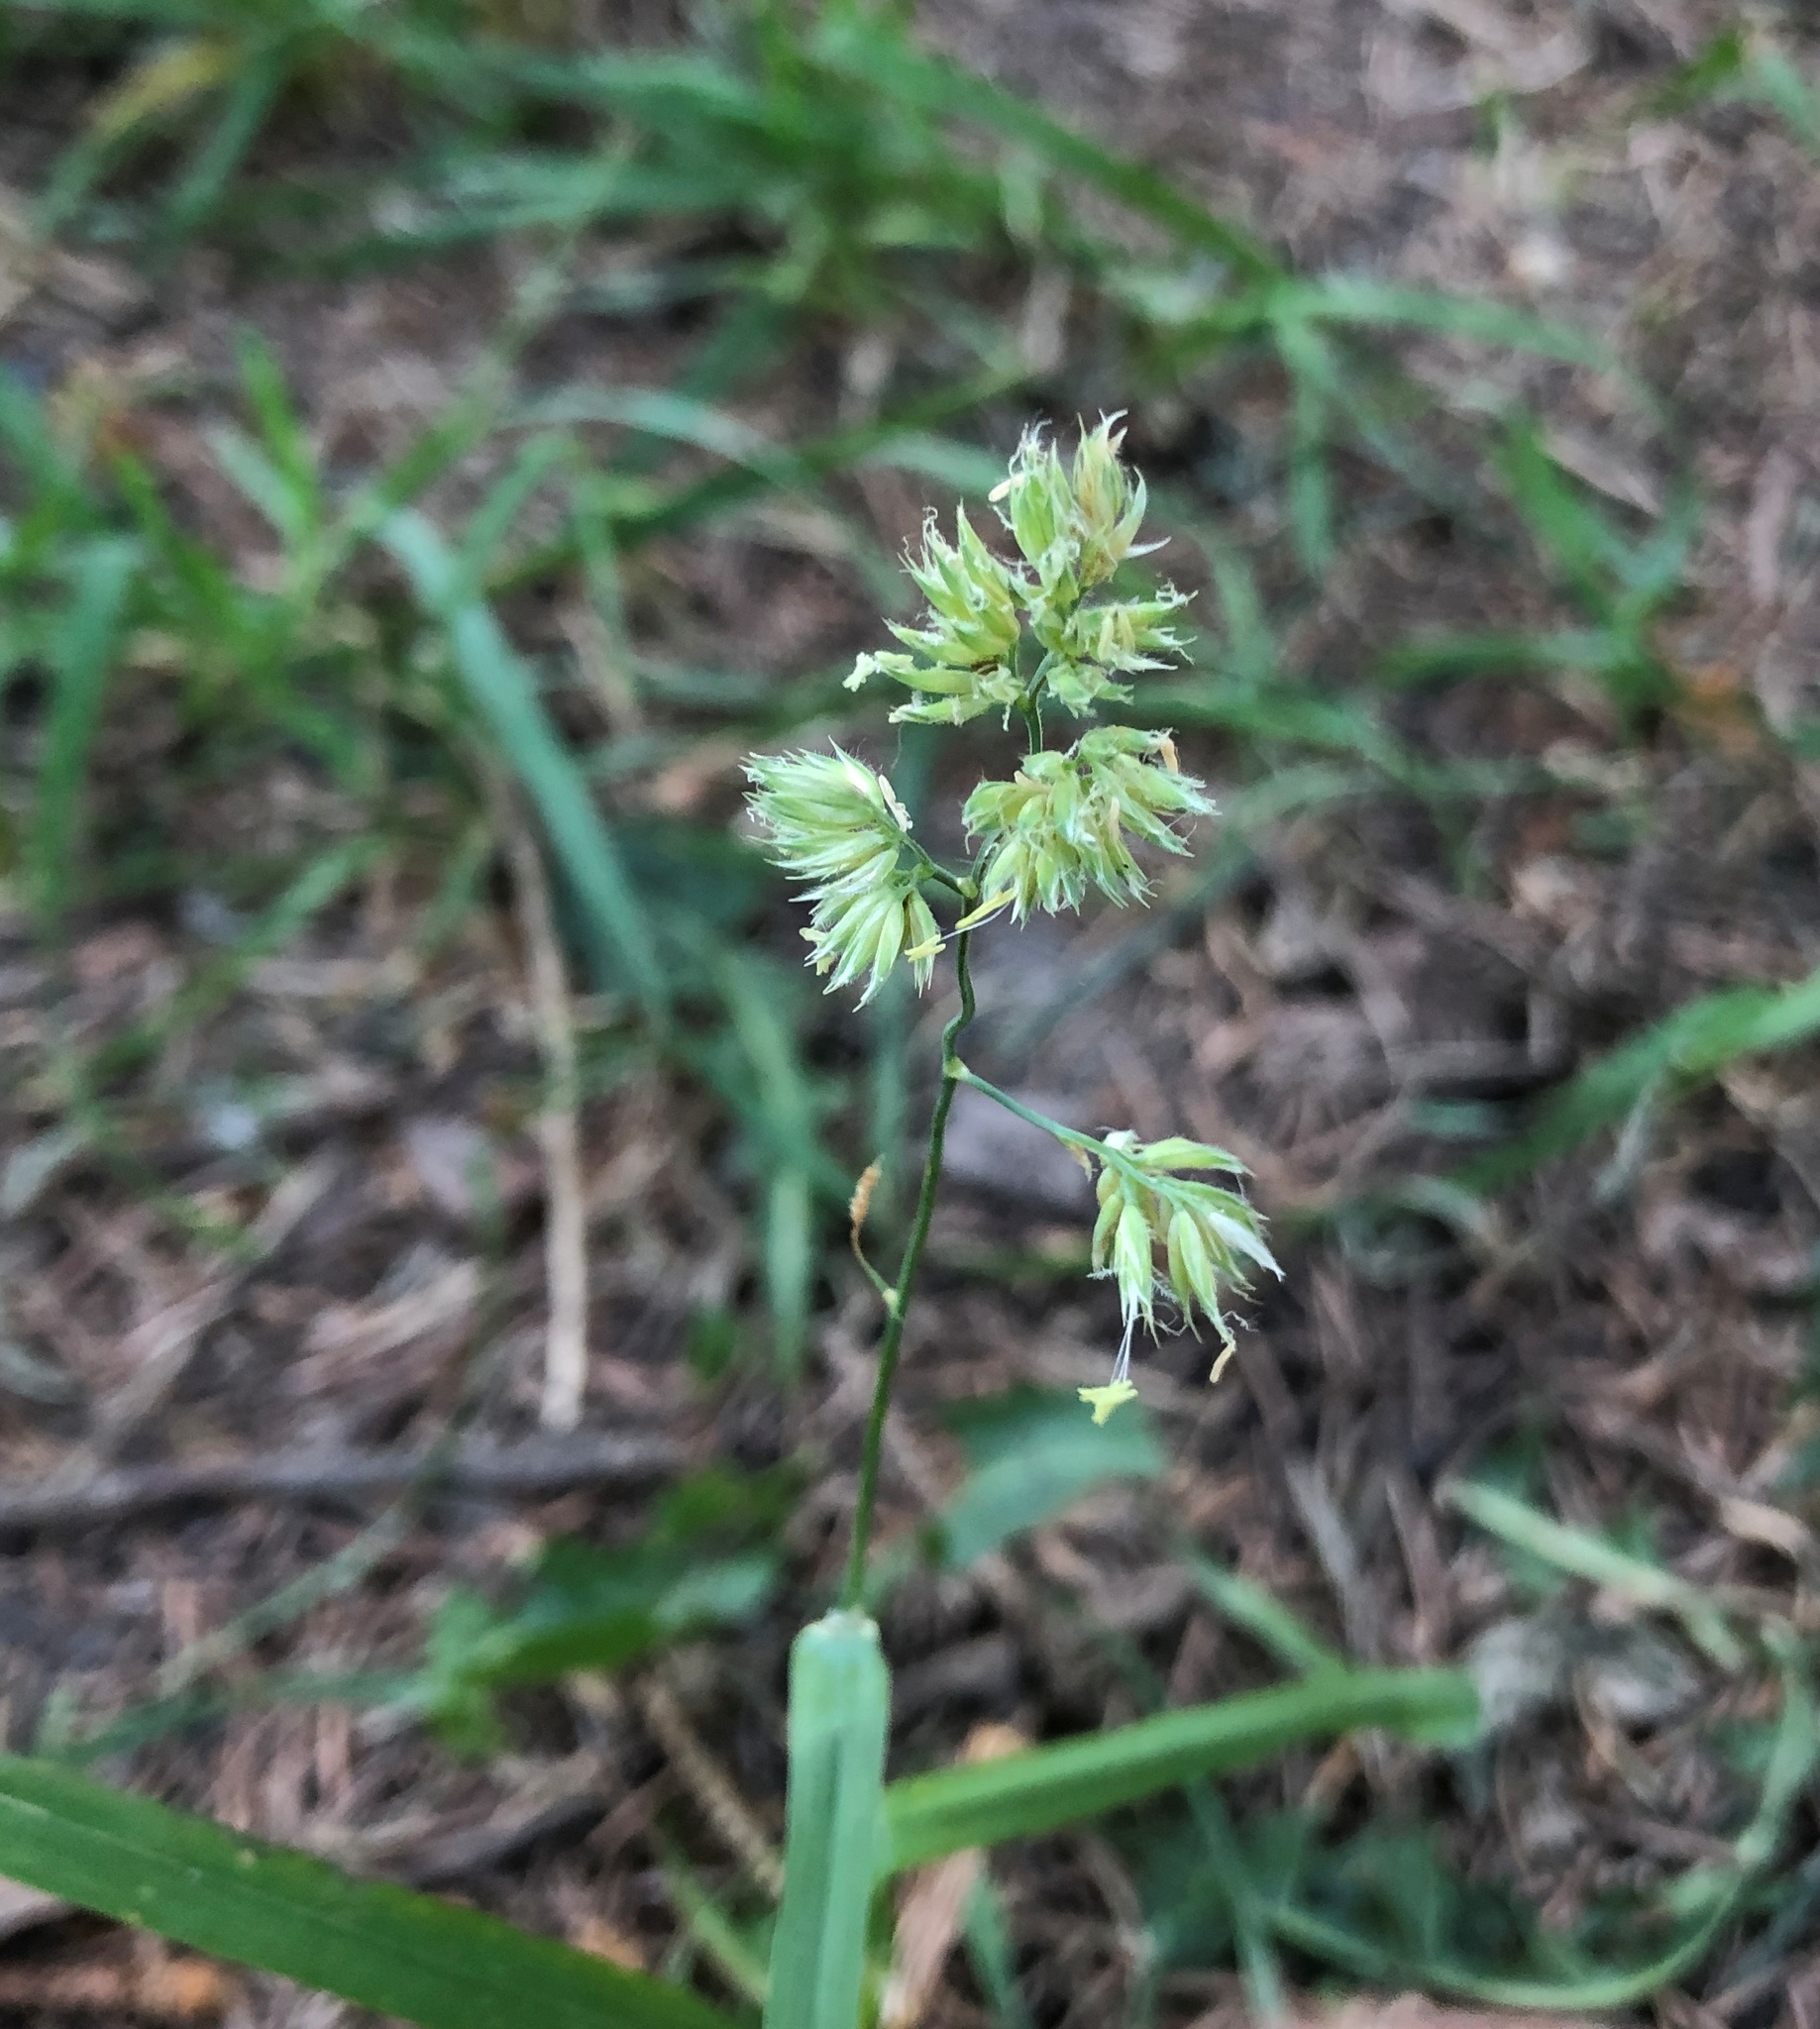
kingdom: Plantae
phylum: Tracheophyta
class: Liliopsida
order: Poales
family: Poaceae
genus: Dactylis
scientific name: Dactylis glomerata
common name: Orchardgrass
